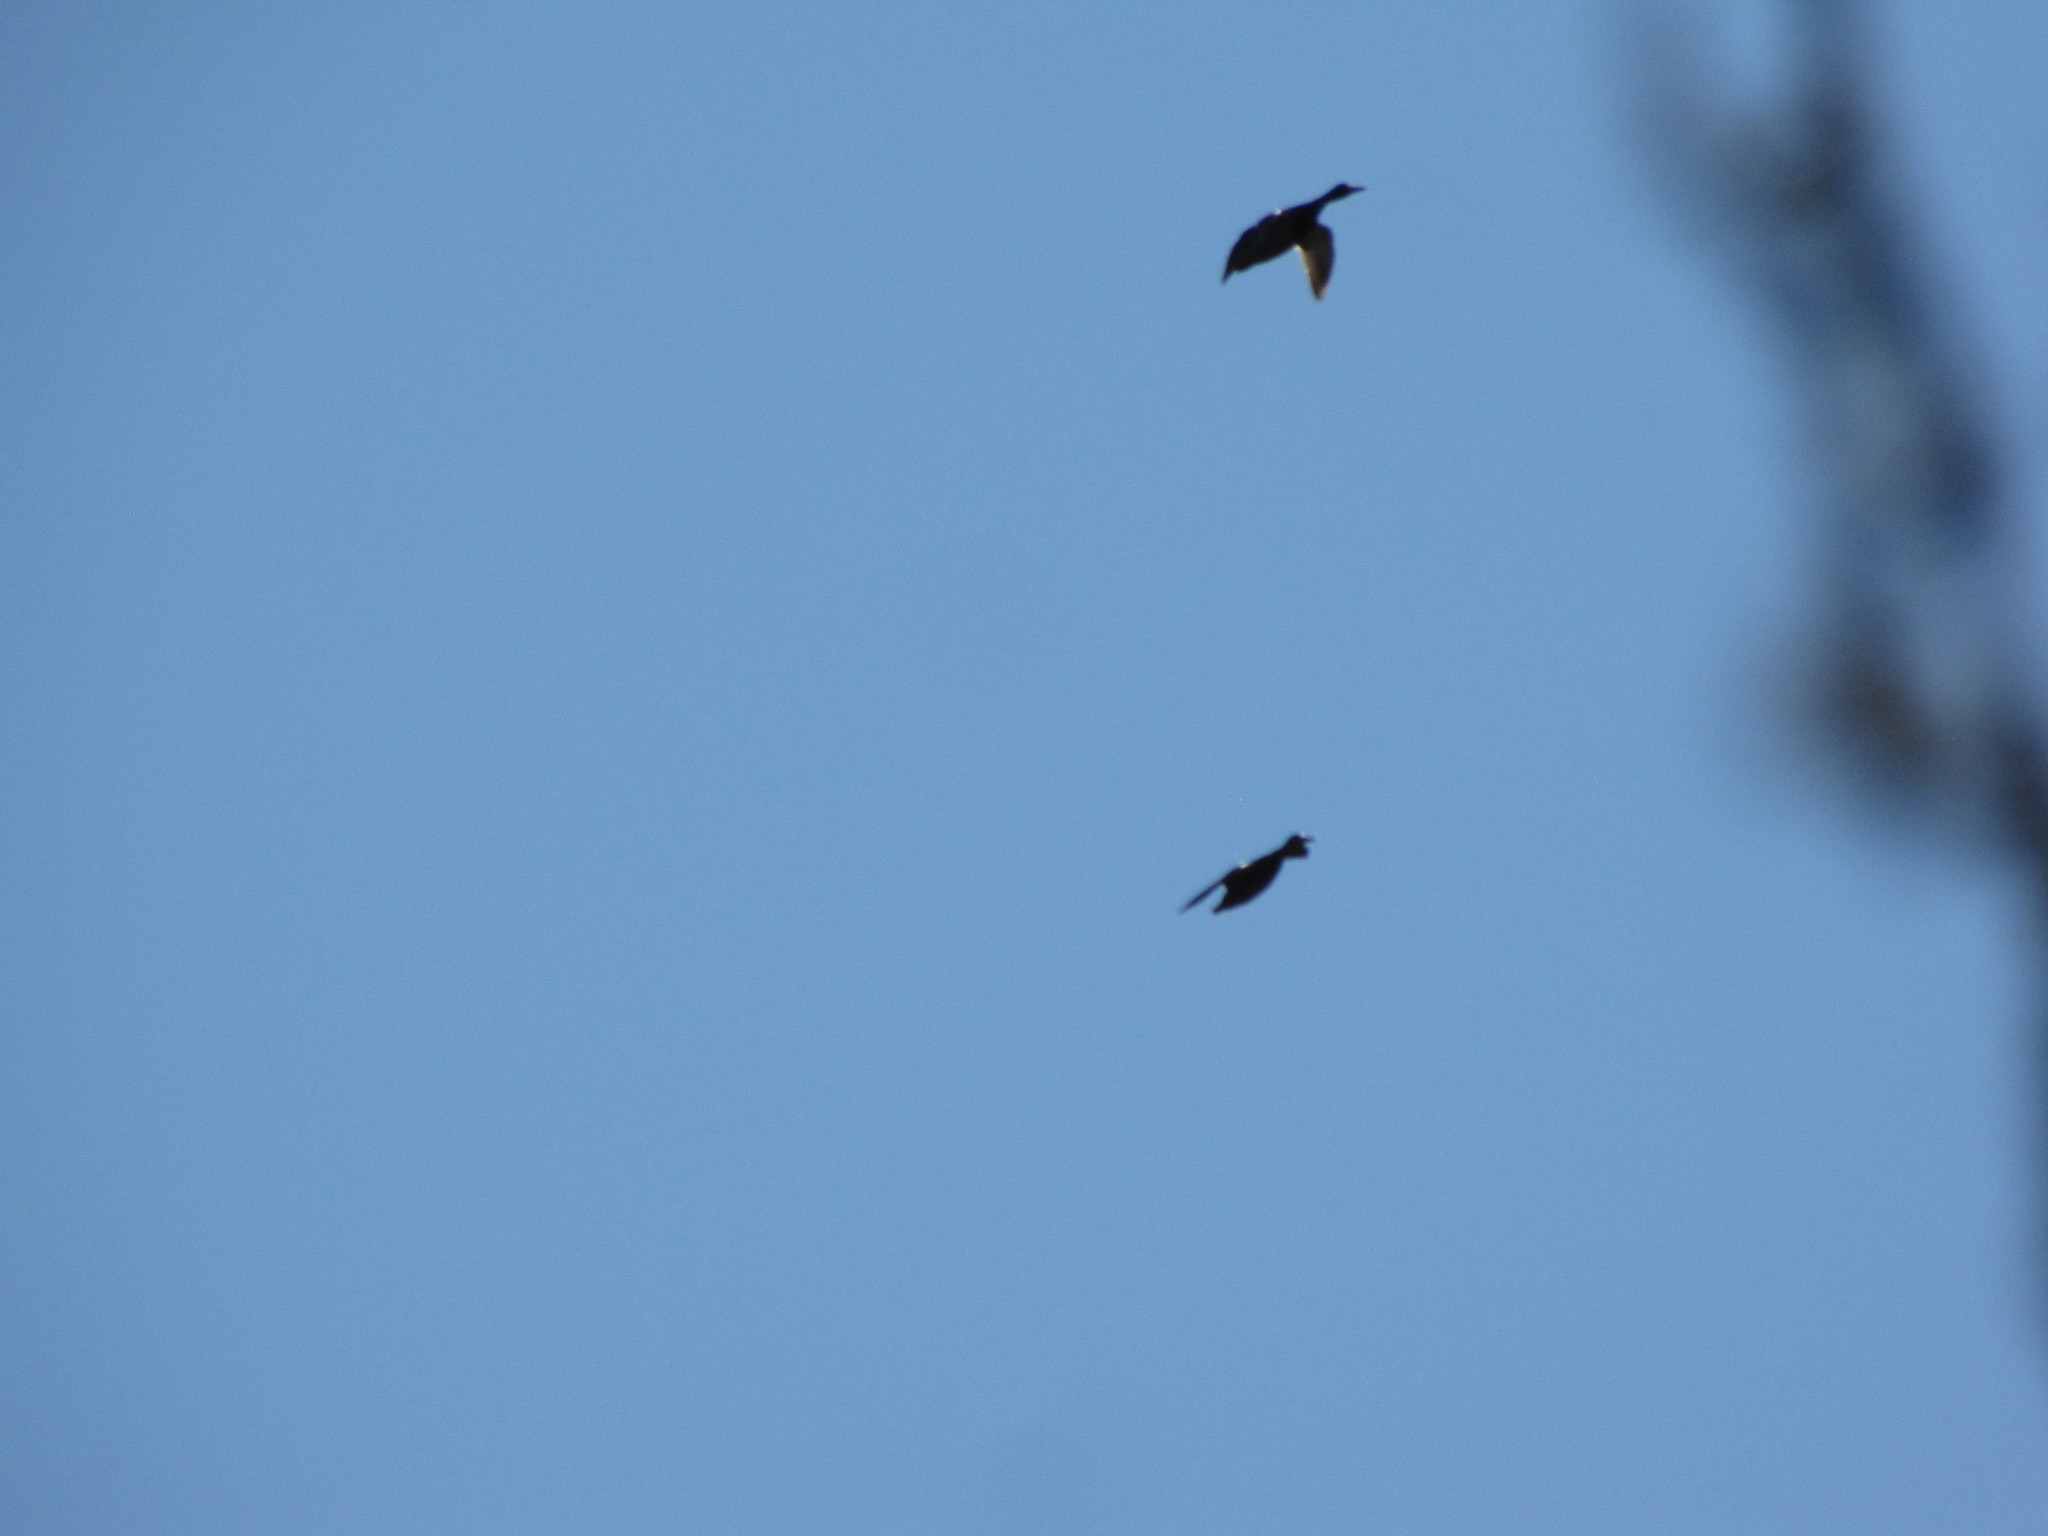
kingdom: Animalia
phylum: Chordata
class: Aves
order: Anseriformes
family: Anatidae
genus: Anas
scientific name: Anas platyrhynchos
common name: Mallard
